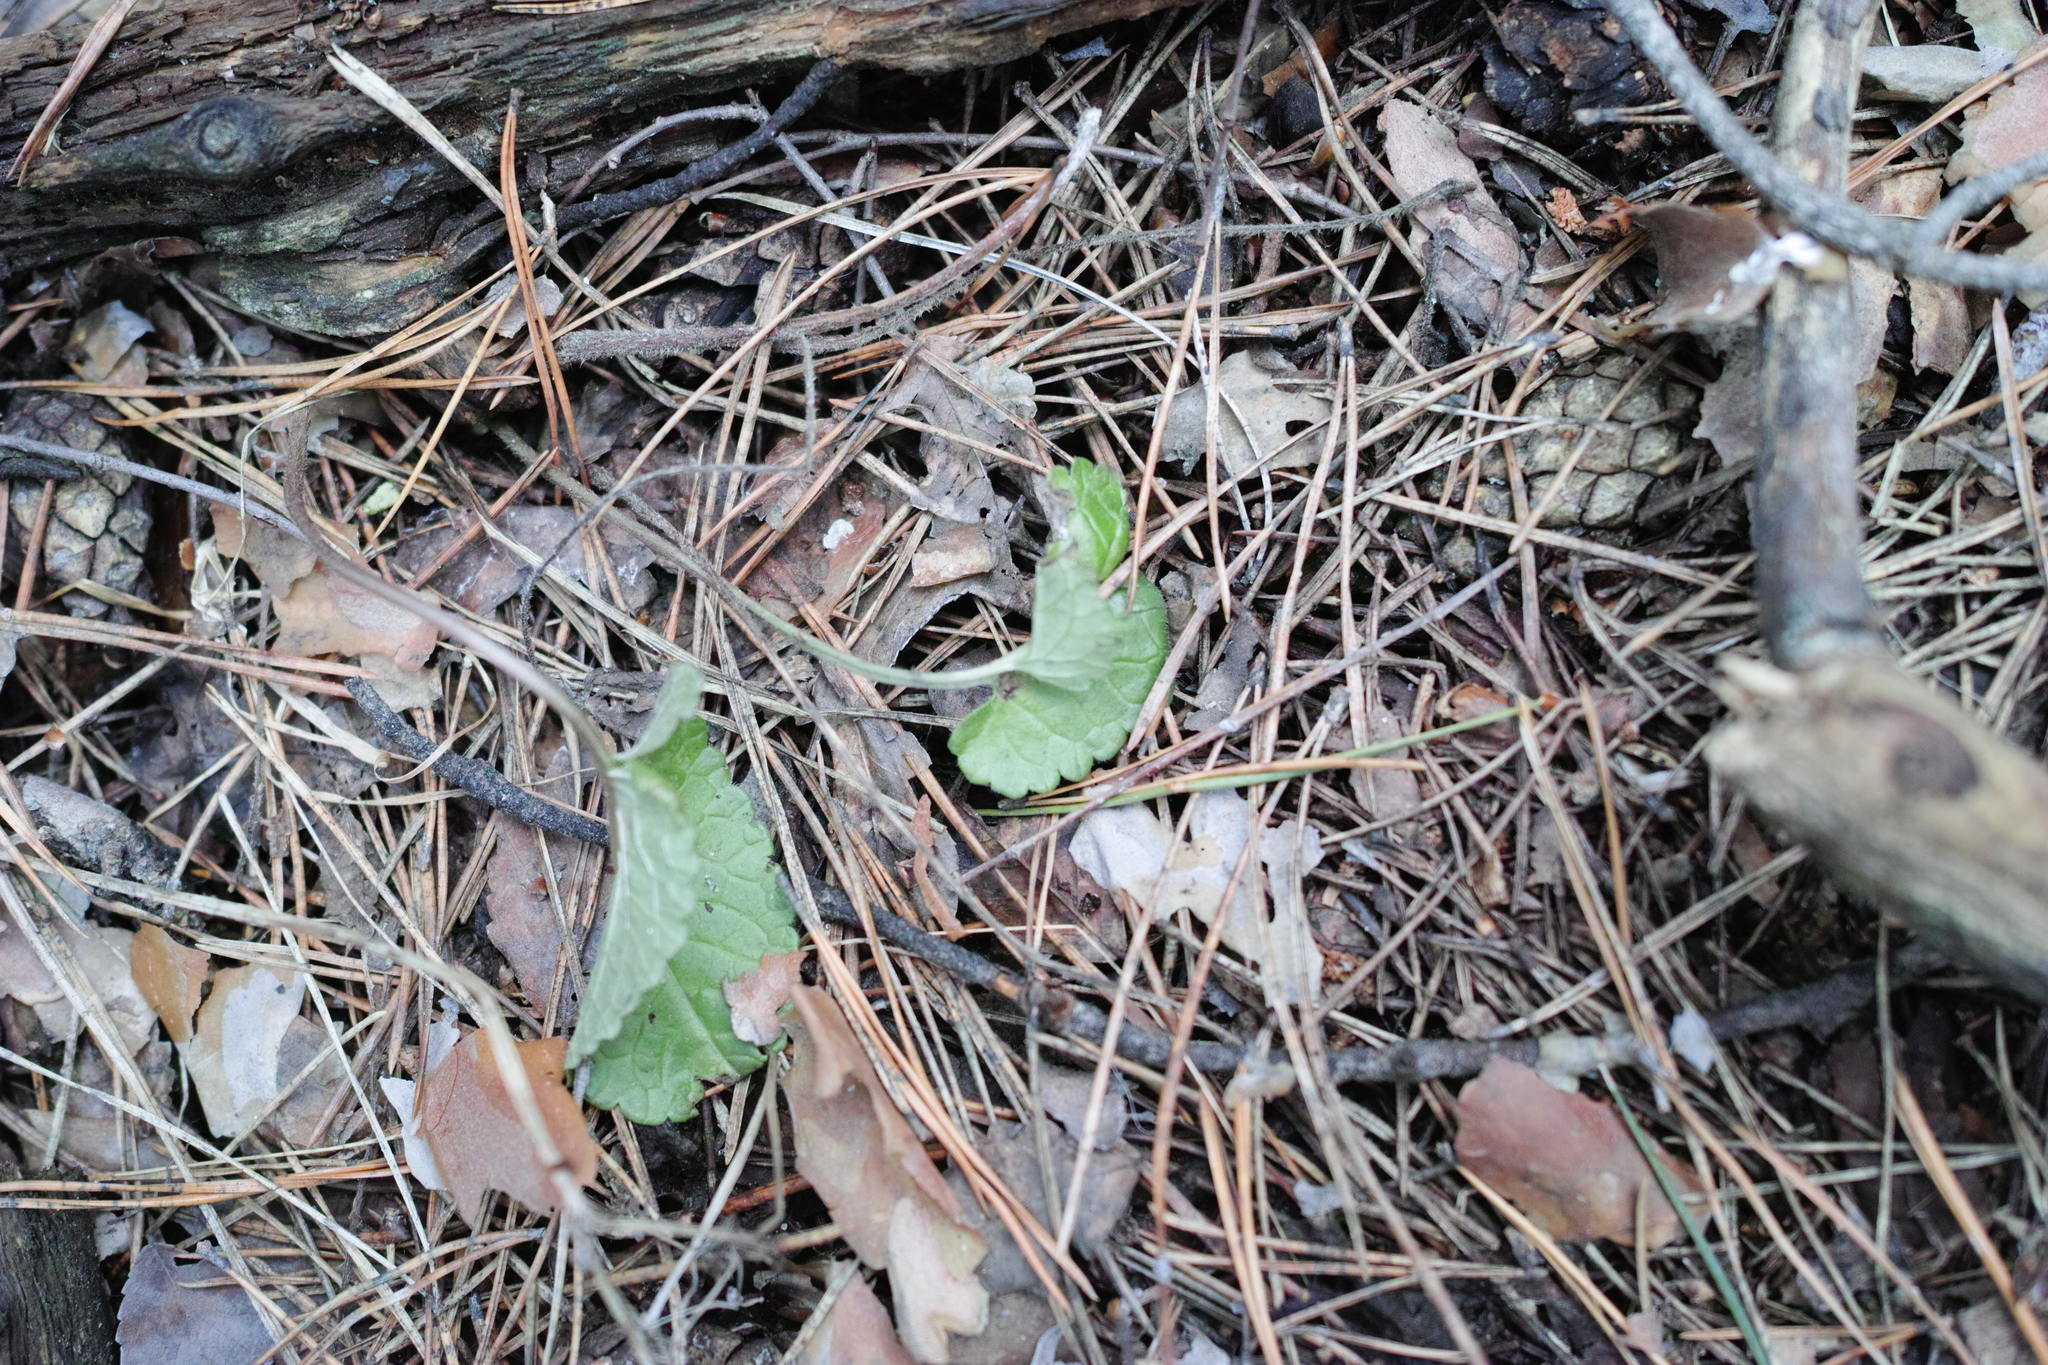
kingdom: Plantae
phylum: Tracheophyta
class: Magnoliopsida
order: Lamiales
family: Lamiaceae
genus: Betonica
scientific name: Betonica officinalis
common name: Bishop's-wort
